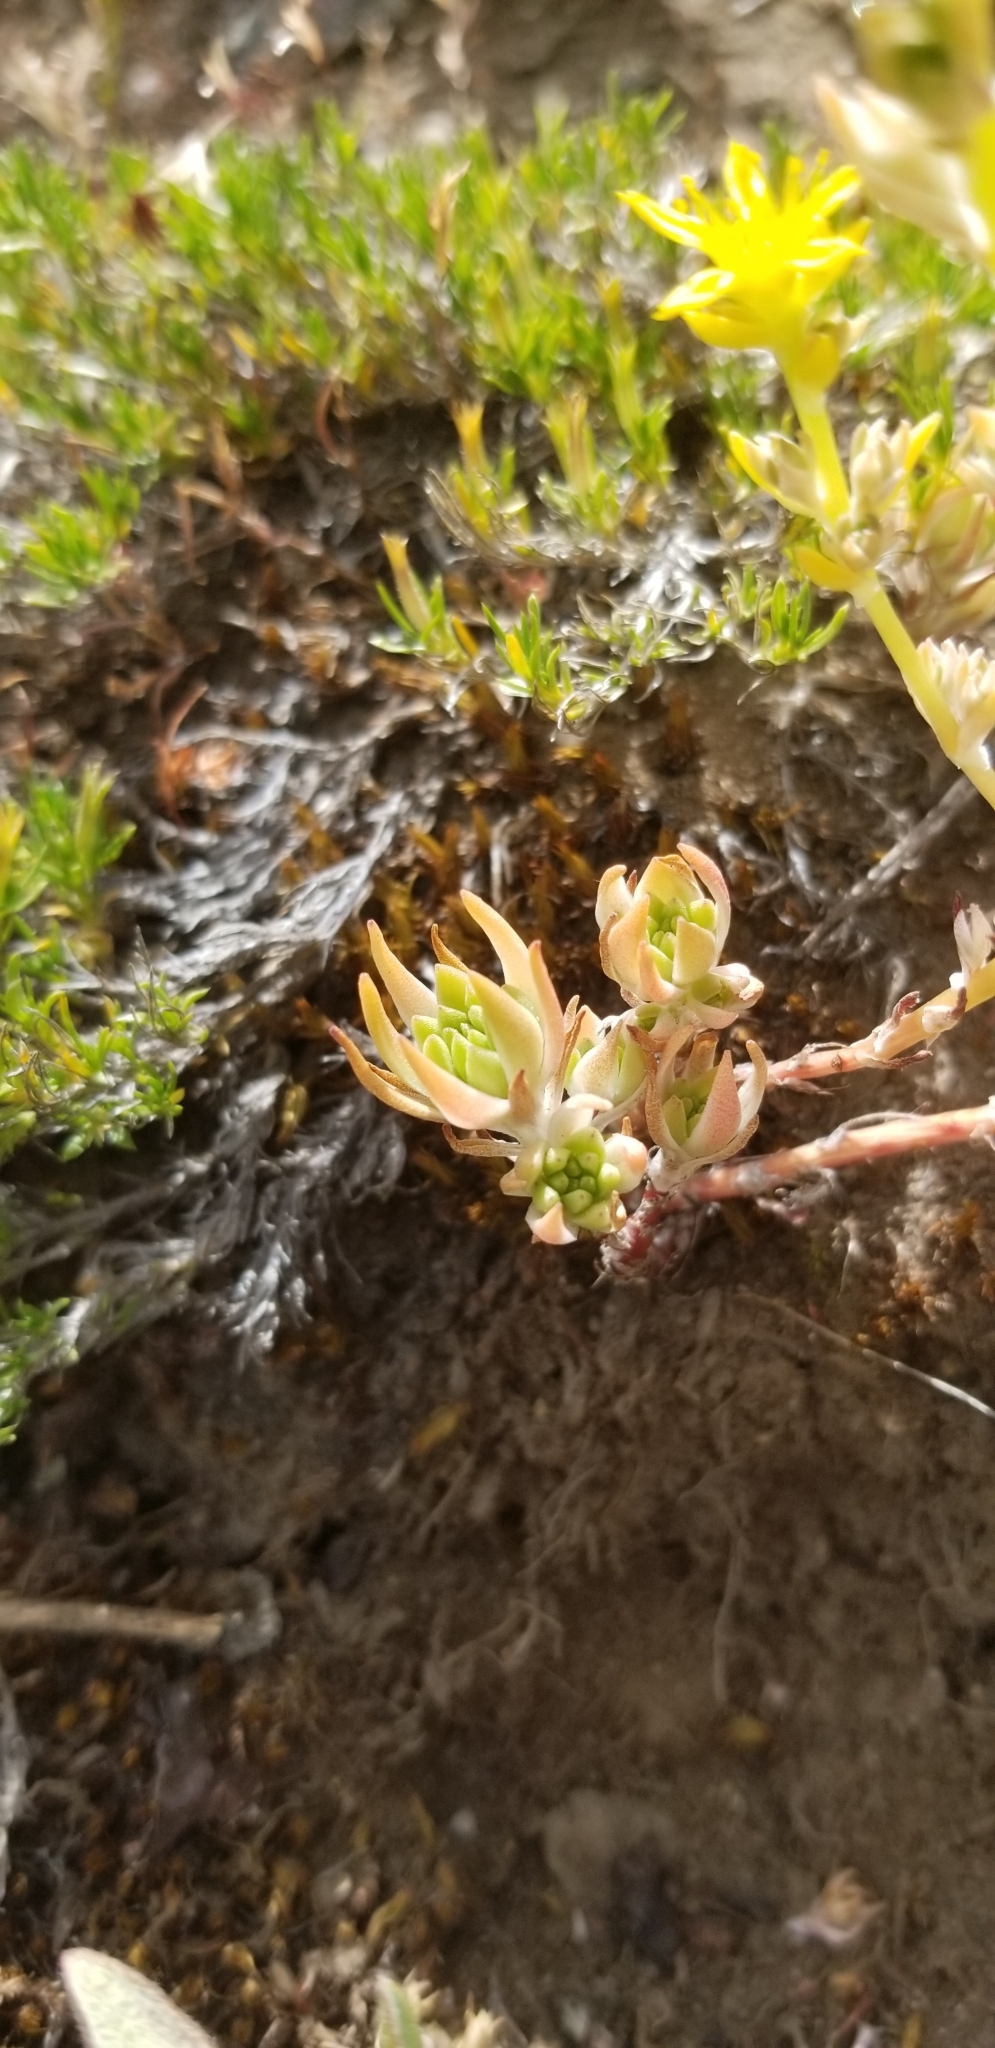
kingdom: Plantae
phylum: Tracheophyta
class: Magnoliopsida
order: Saxifragales
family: Crassulaceae
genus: Sedum
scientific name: Sedum stenopetalum
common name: Narrow-petaled stonecrop
